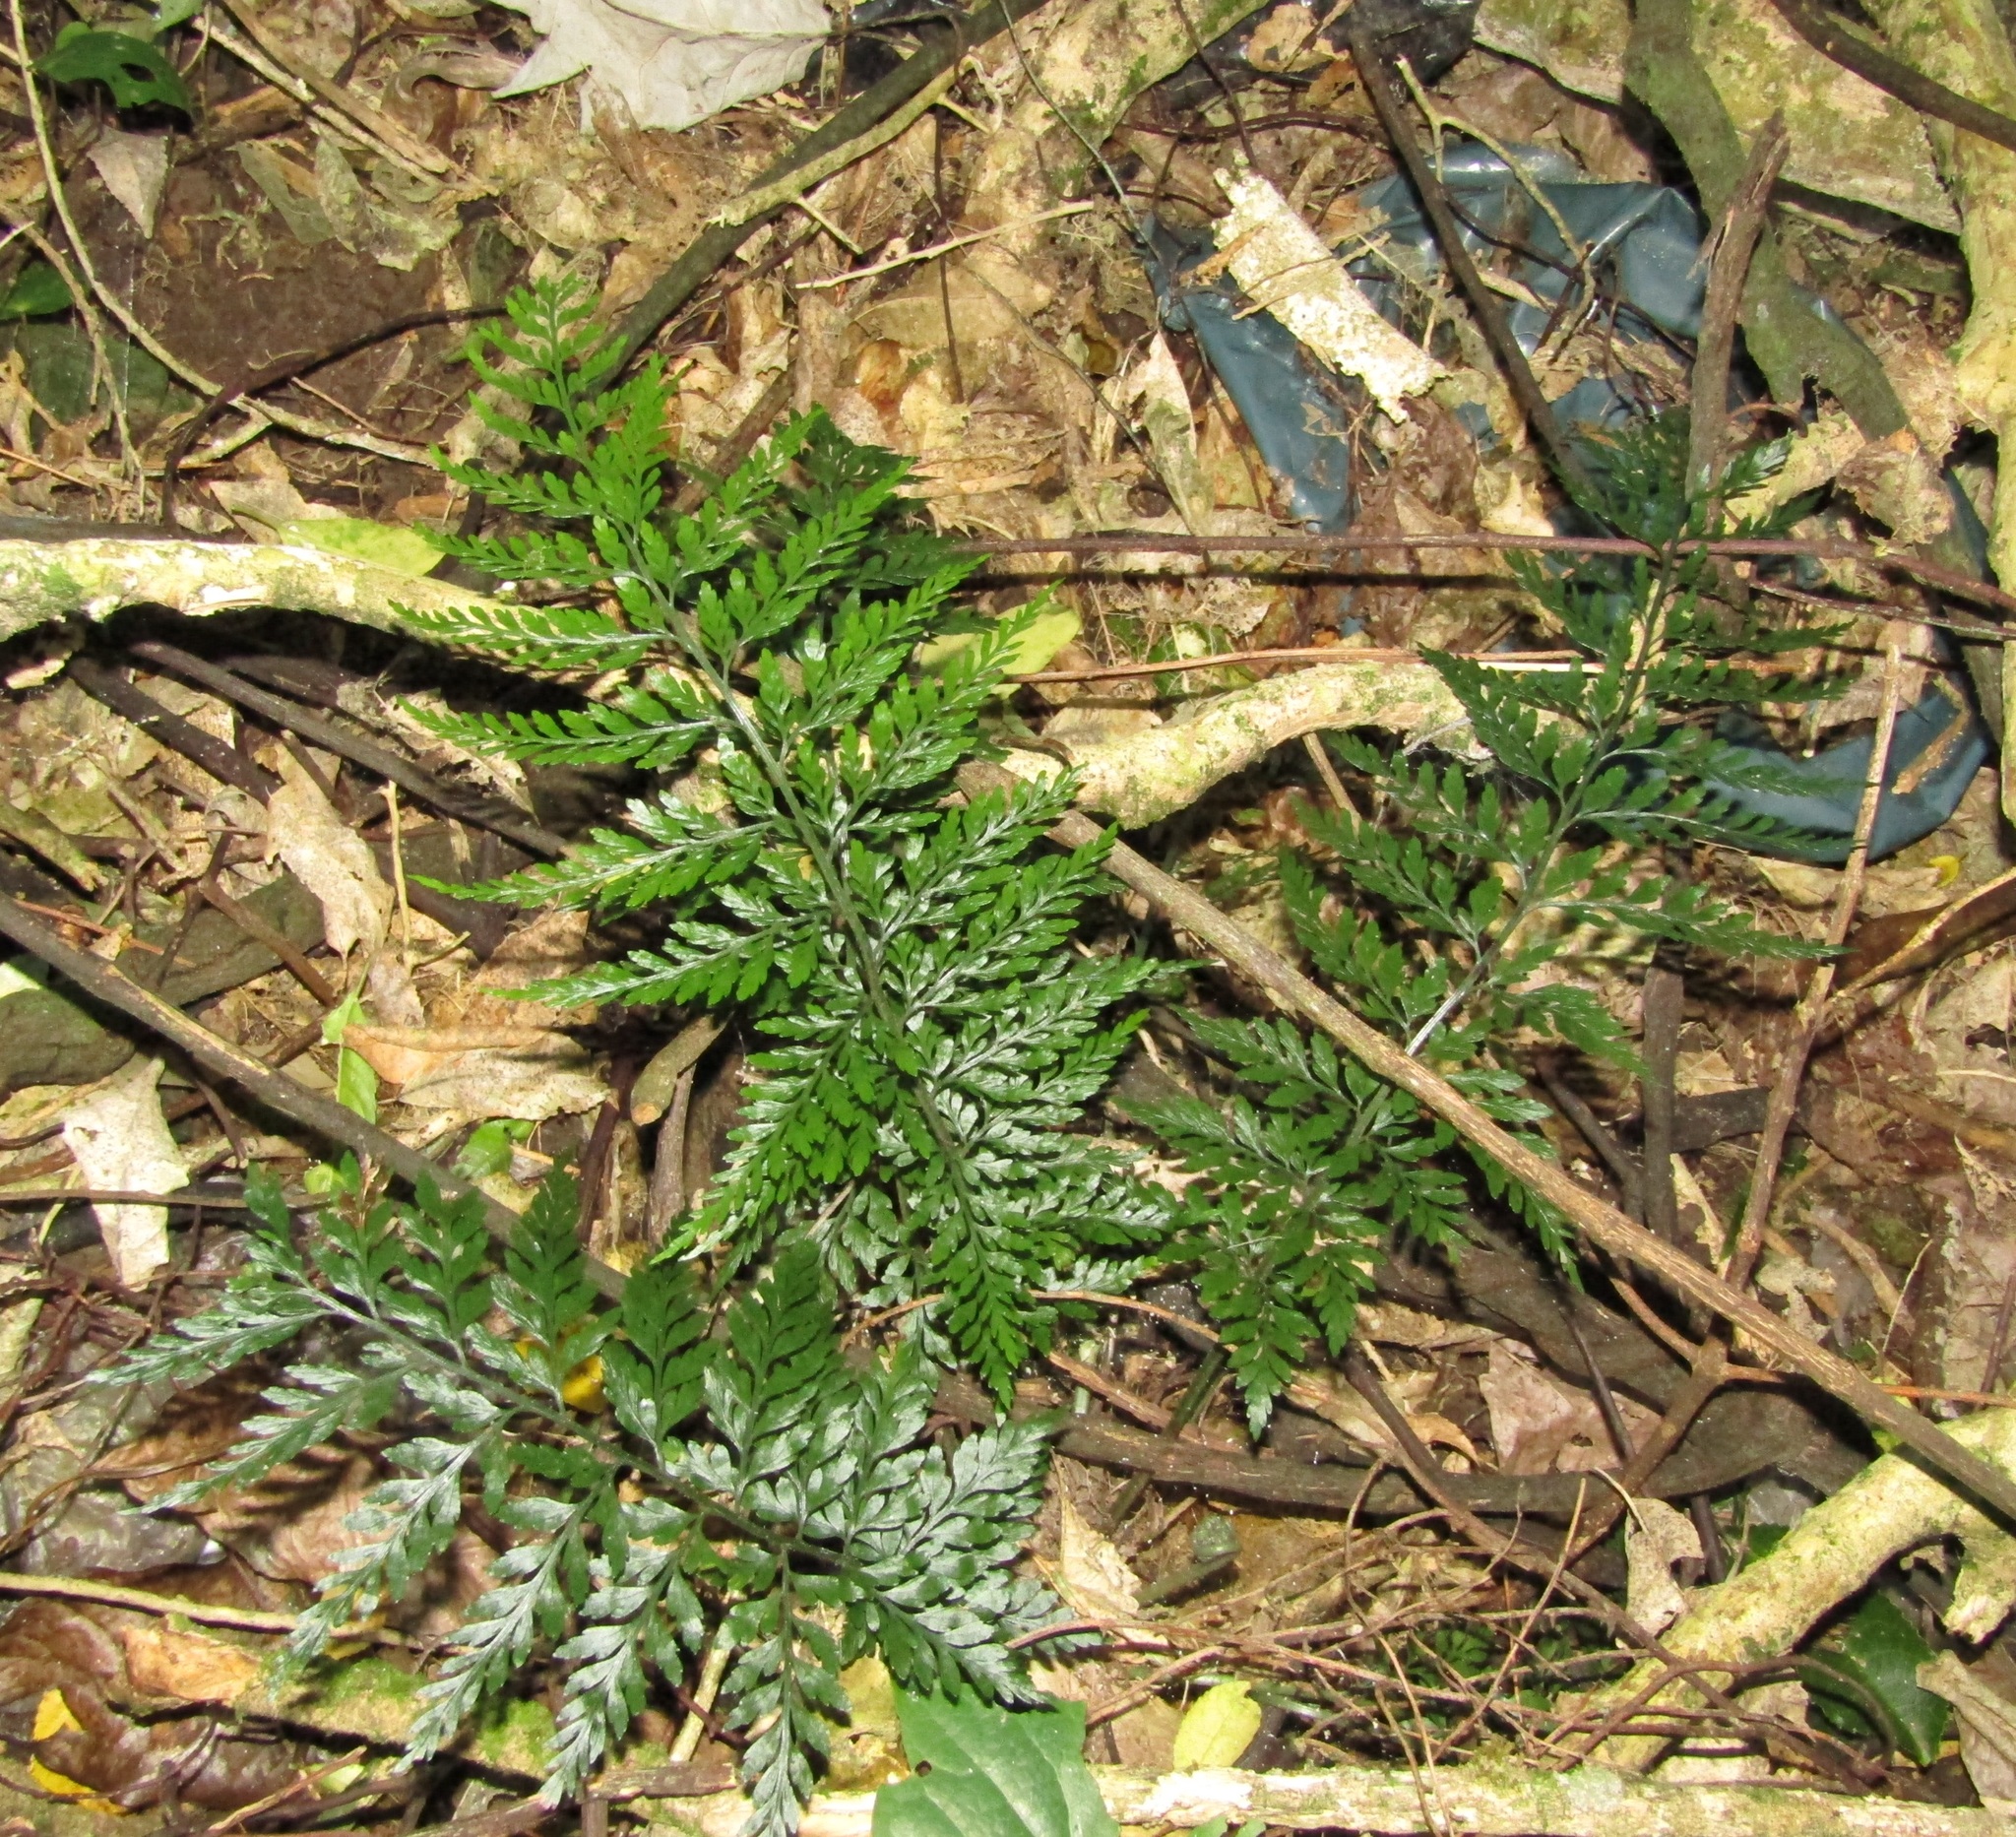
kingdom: Plantae
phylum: Tracheophyta
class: Polypodiopsida
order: Polypodiales
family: Aspleniaceae
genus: Asplenium
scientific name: Asplenium
